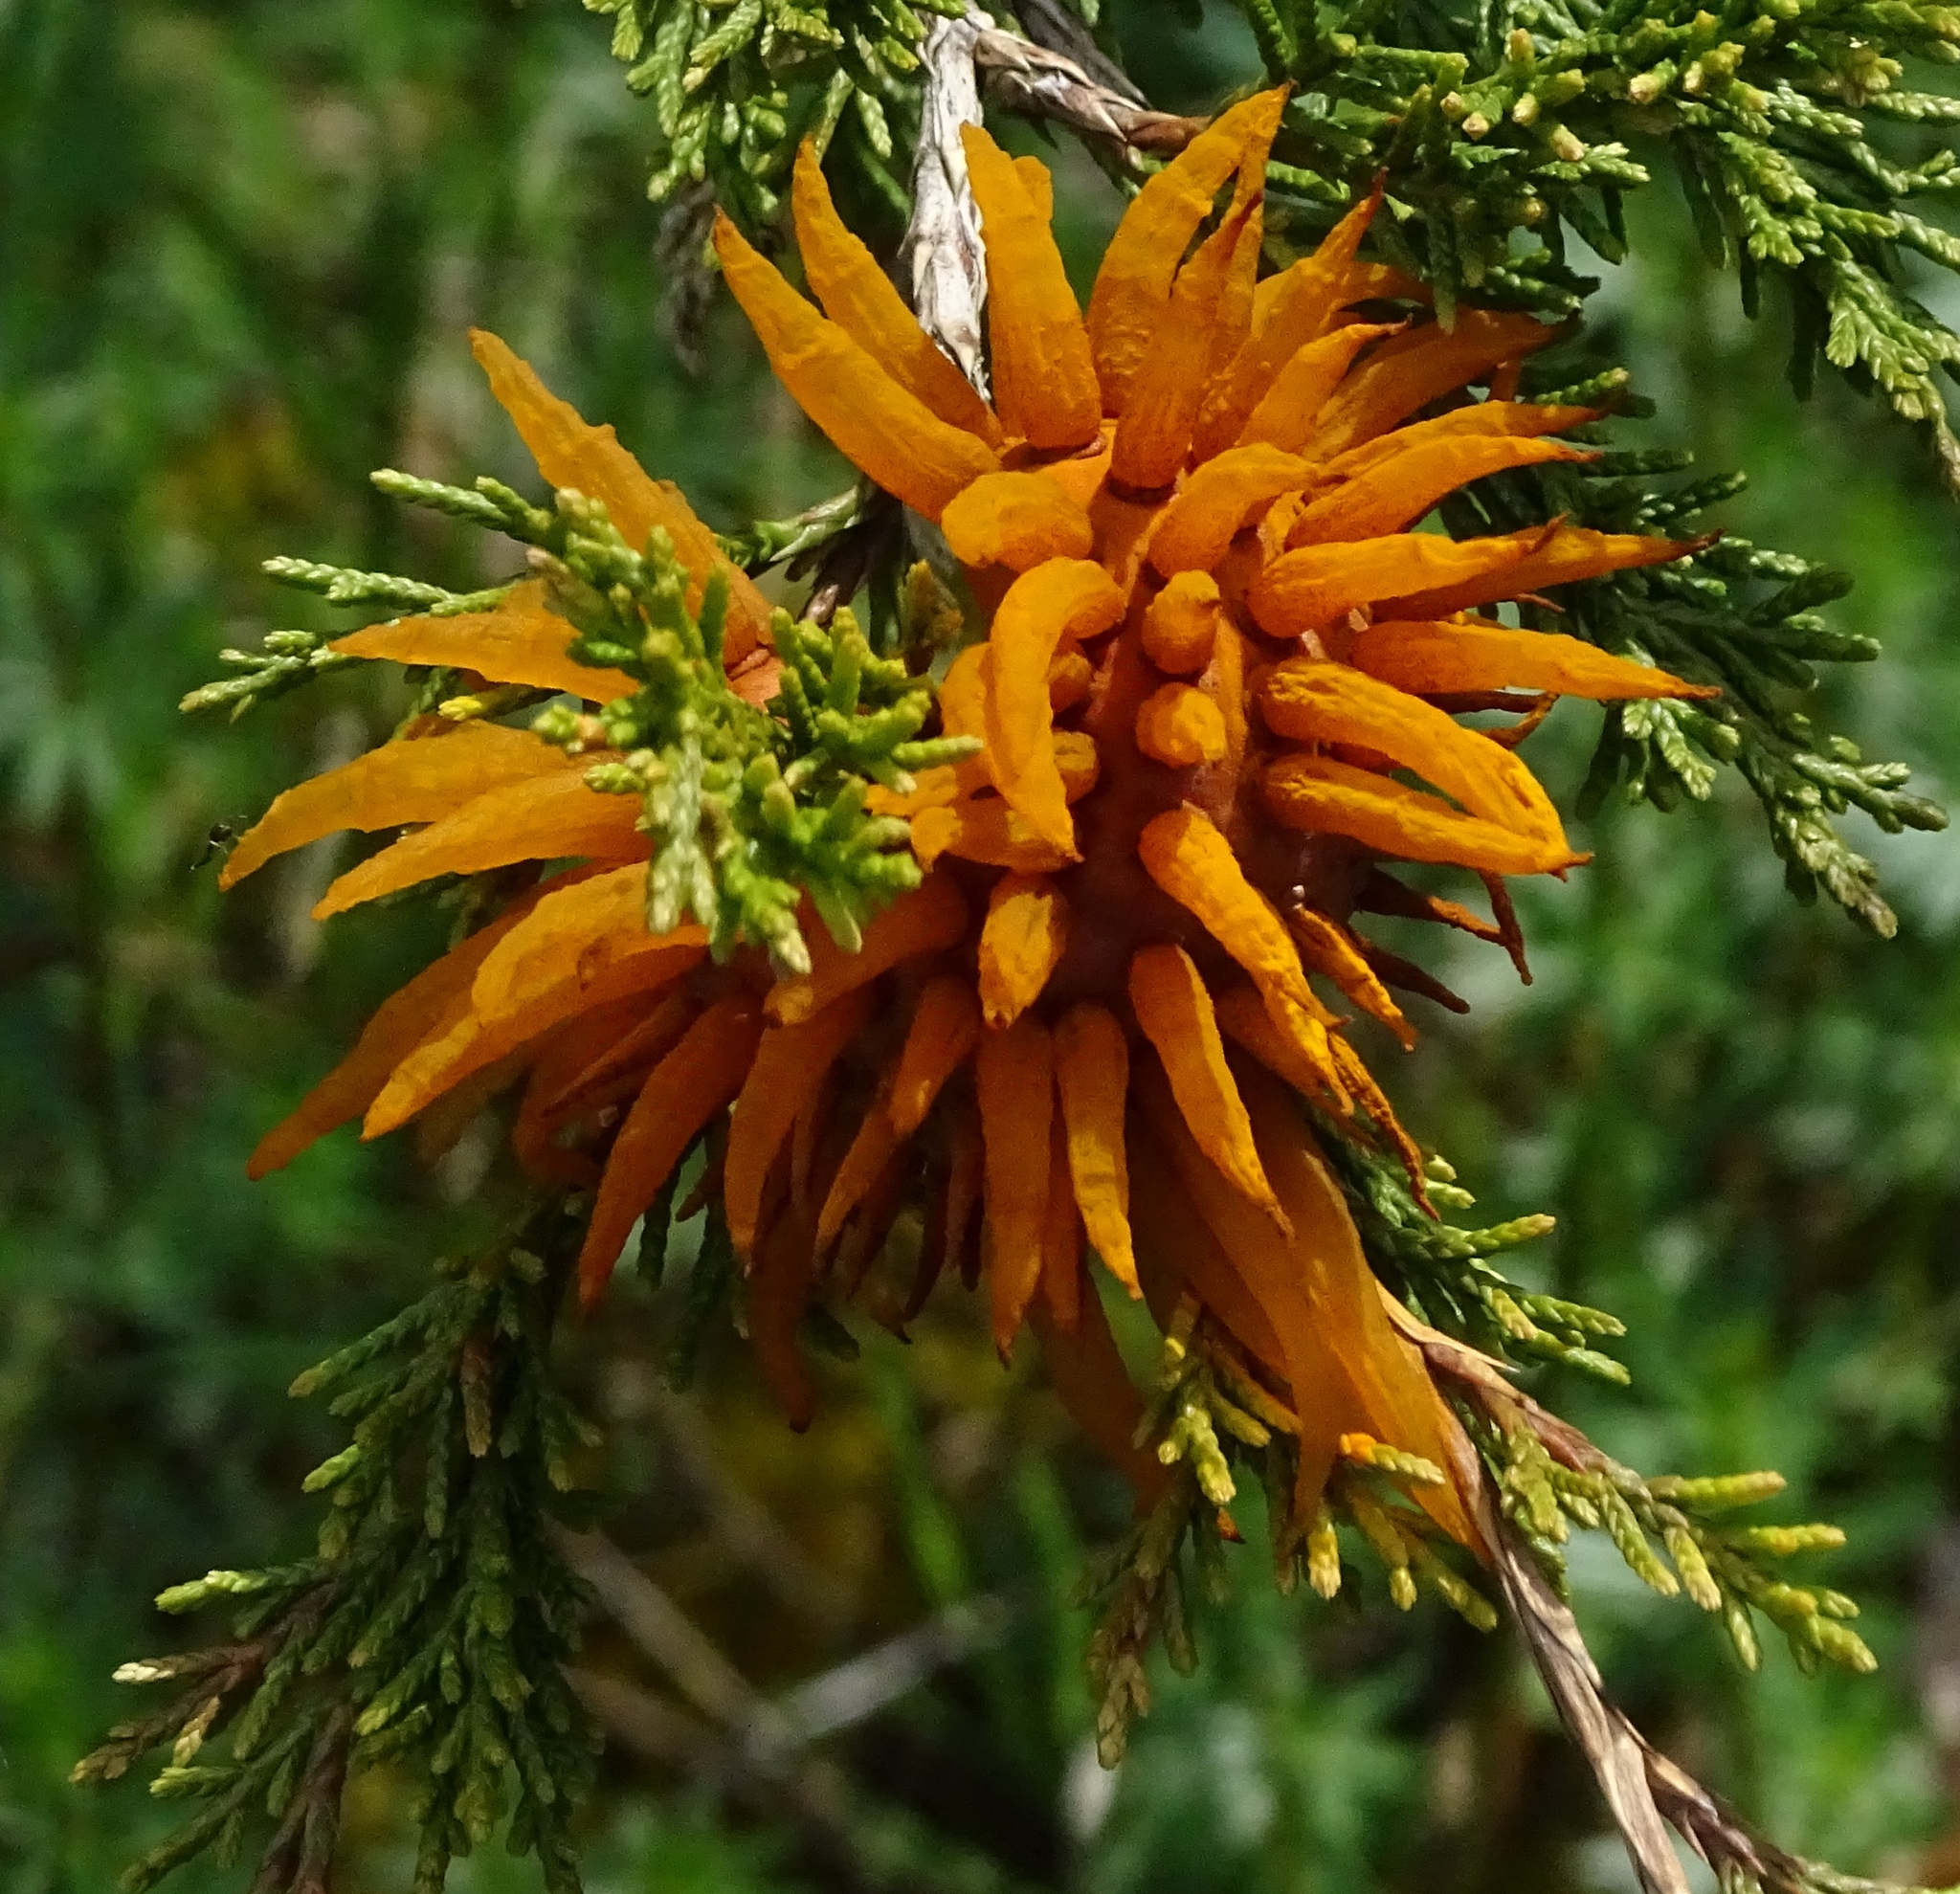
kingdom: Fungi
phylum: Basidiomycota
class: Pucciniomycetes
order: Pucciniales
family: Gymnosporangiaceae
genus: Gymnosporangium
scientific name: Gymnosporangium juniperi-virginianae
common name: Juniper-apple rust
